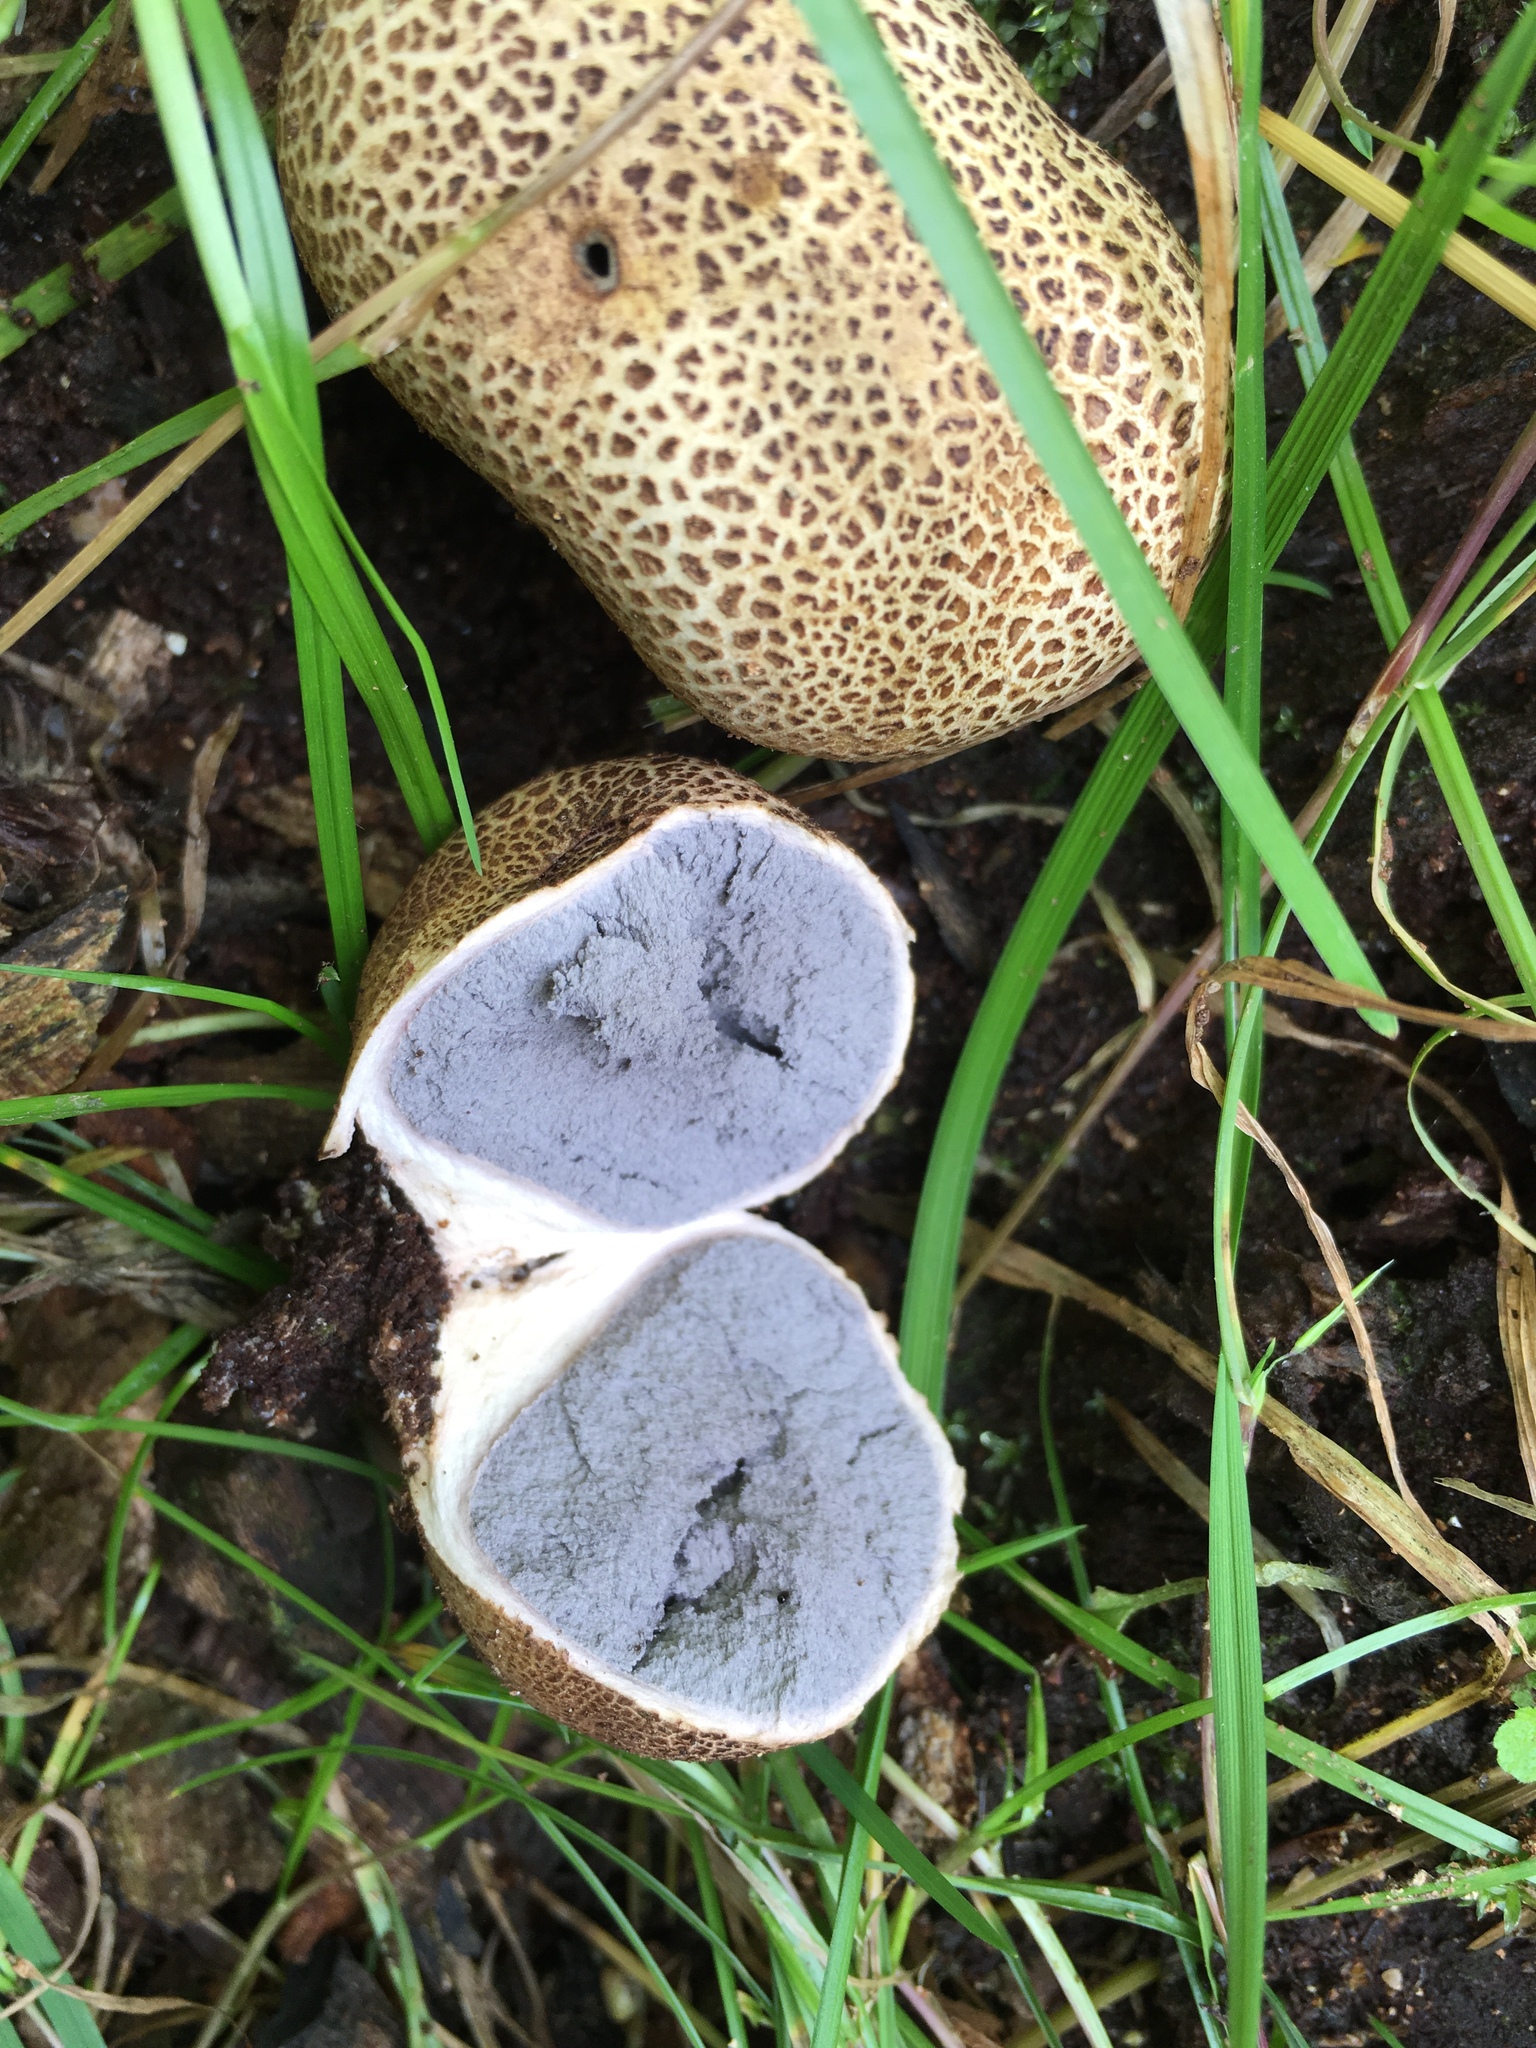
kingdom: Fungi
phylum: Basidiomycota
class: Agaricomycetes
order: Boletales
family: Sclerodermataceae
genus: Scleroderma
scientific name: Scleroderma citrinum
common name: Common earthball
